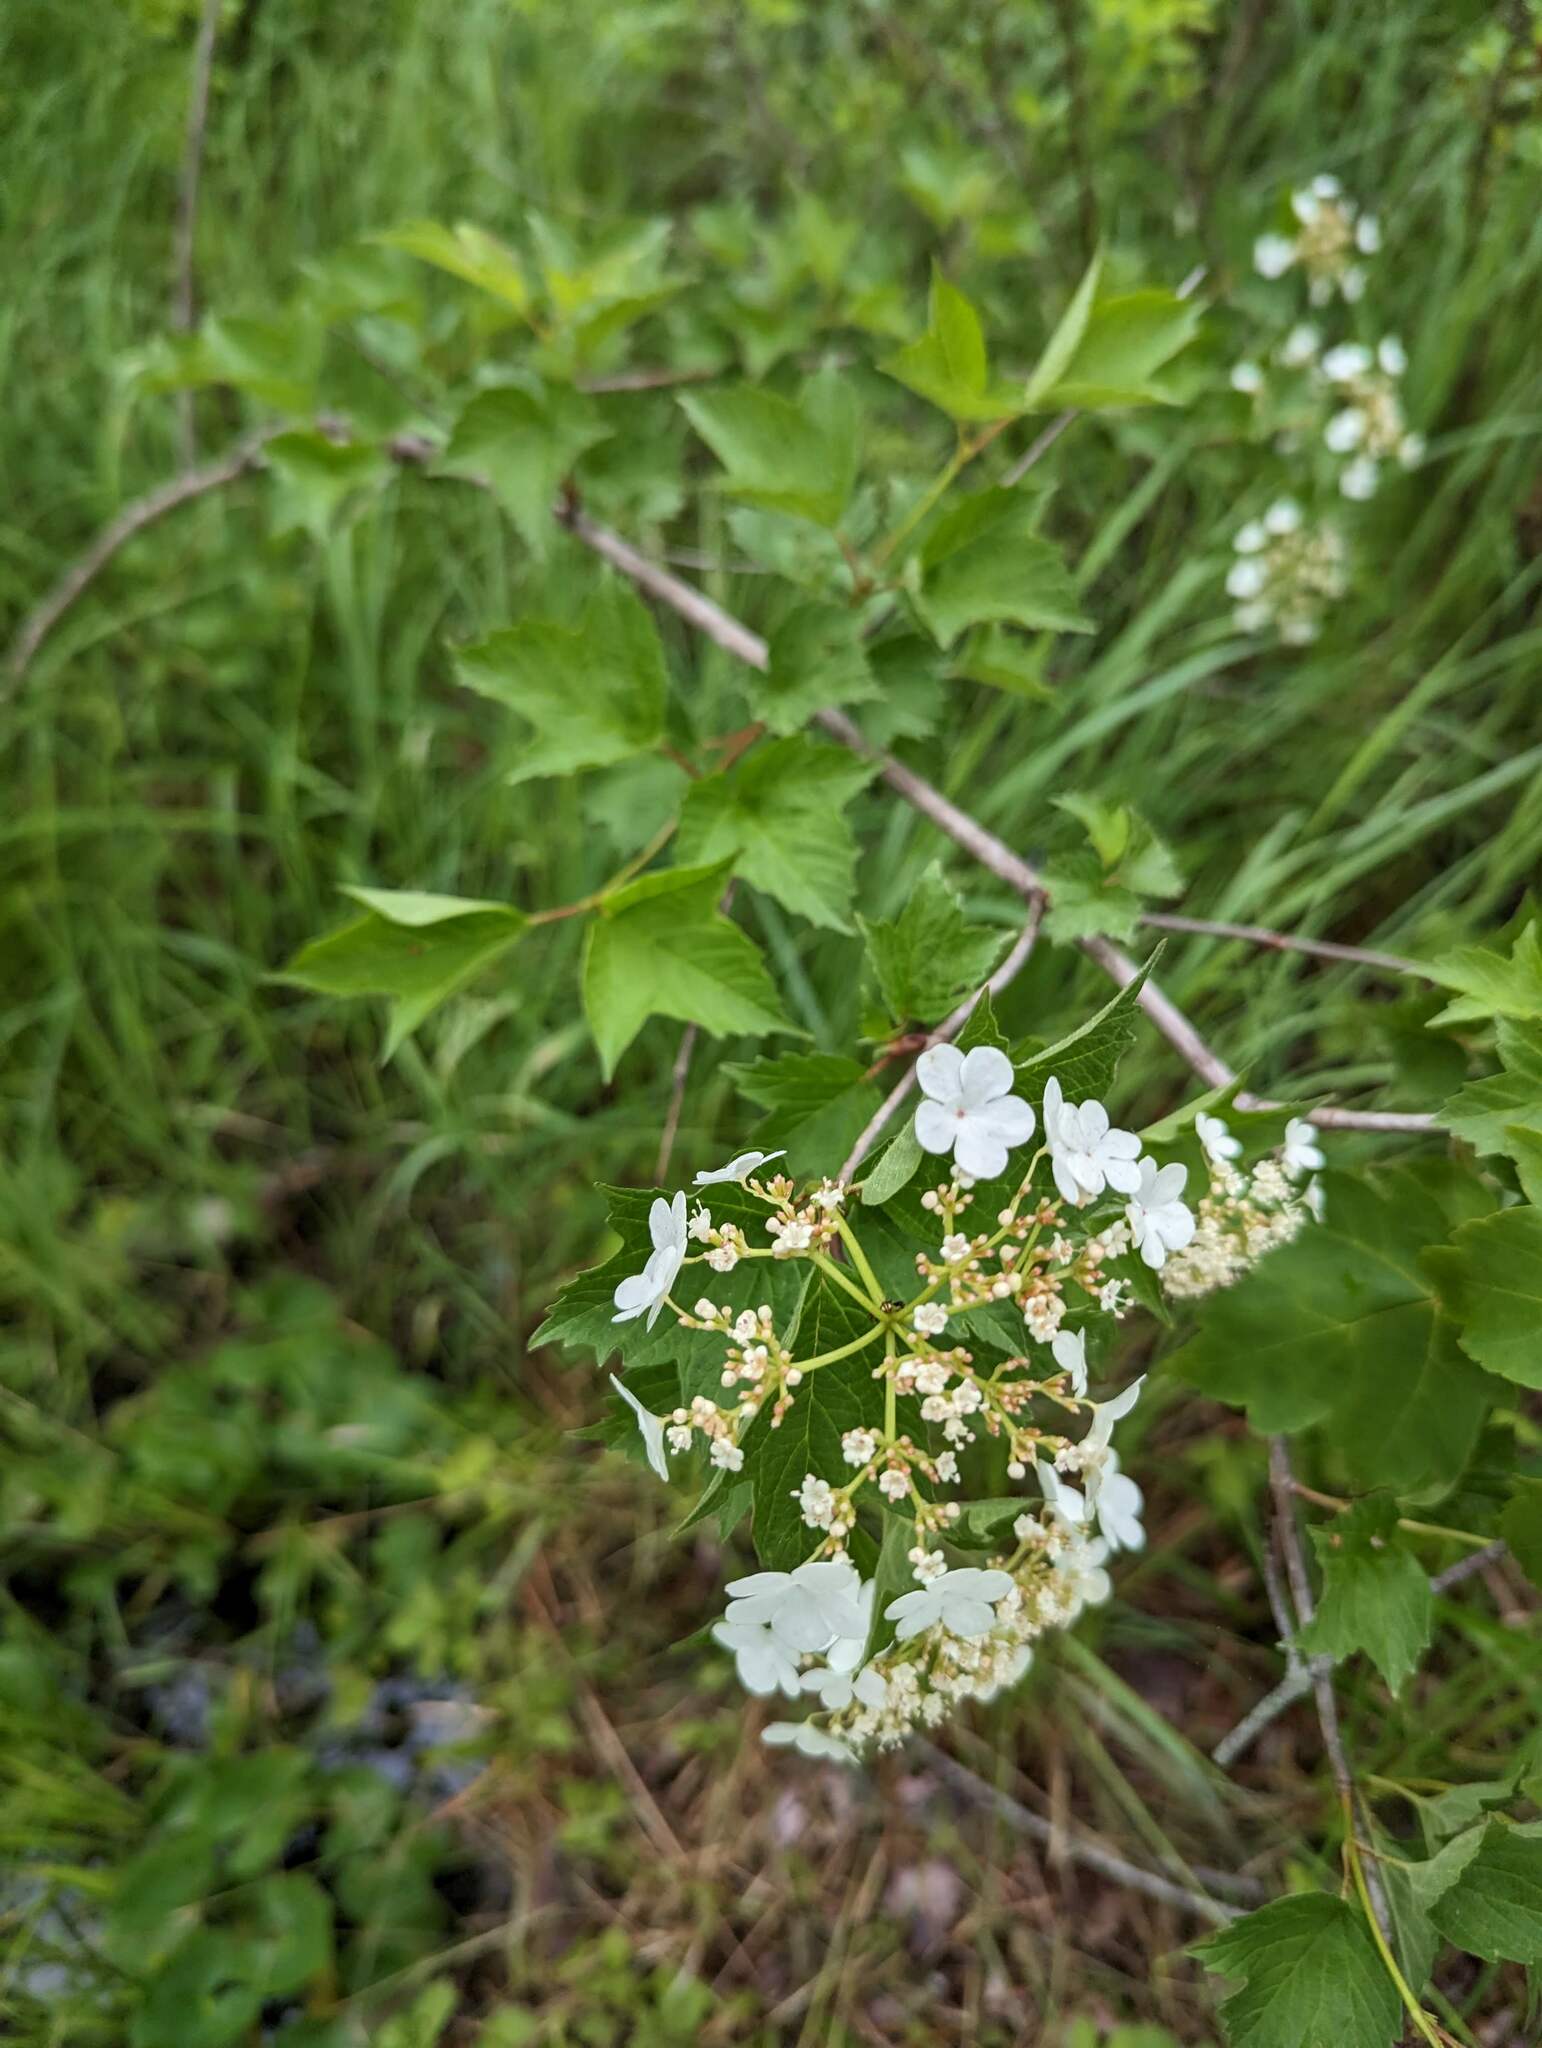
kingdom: Plantae
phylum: Tracheophyta
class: Magnoliopsida
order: Dipsacales
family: Viburnaceae
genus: Viburnum
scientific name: Viburnum opulus
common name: Guelder-rose
